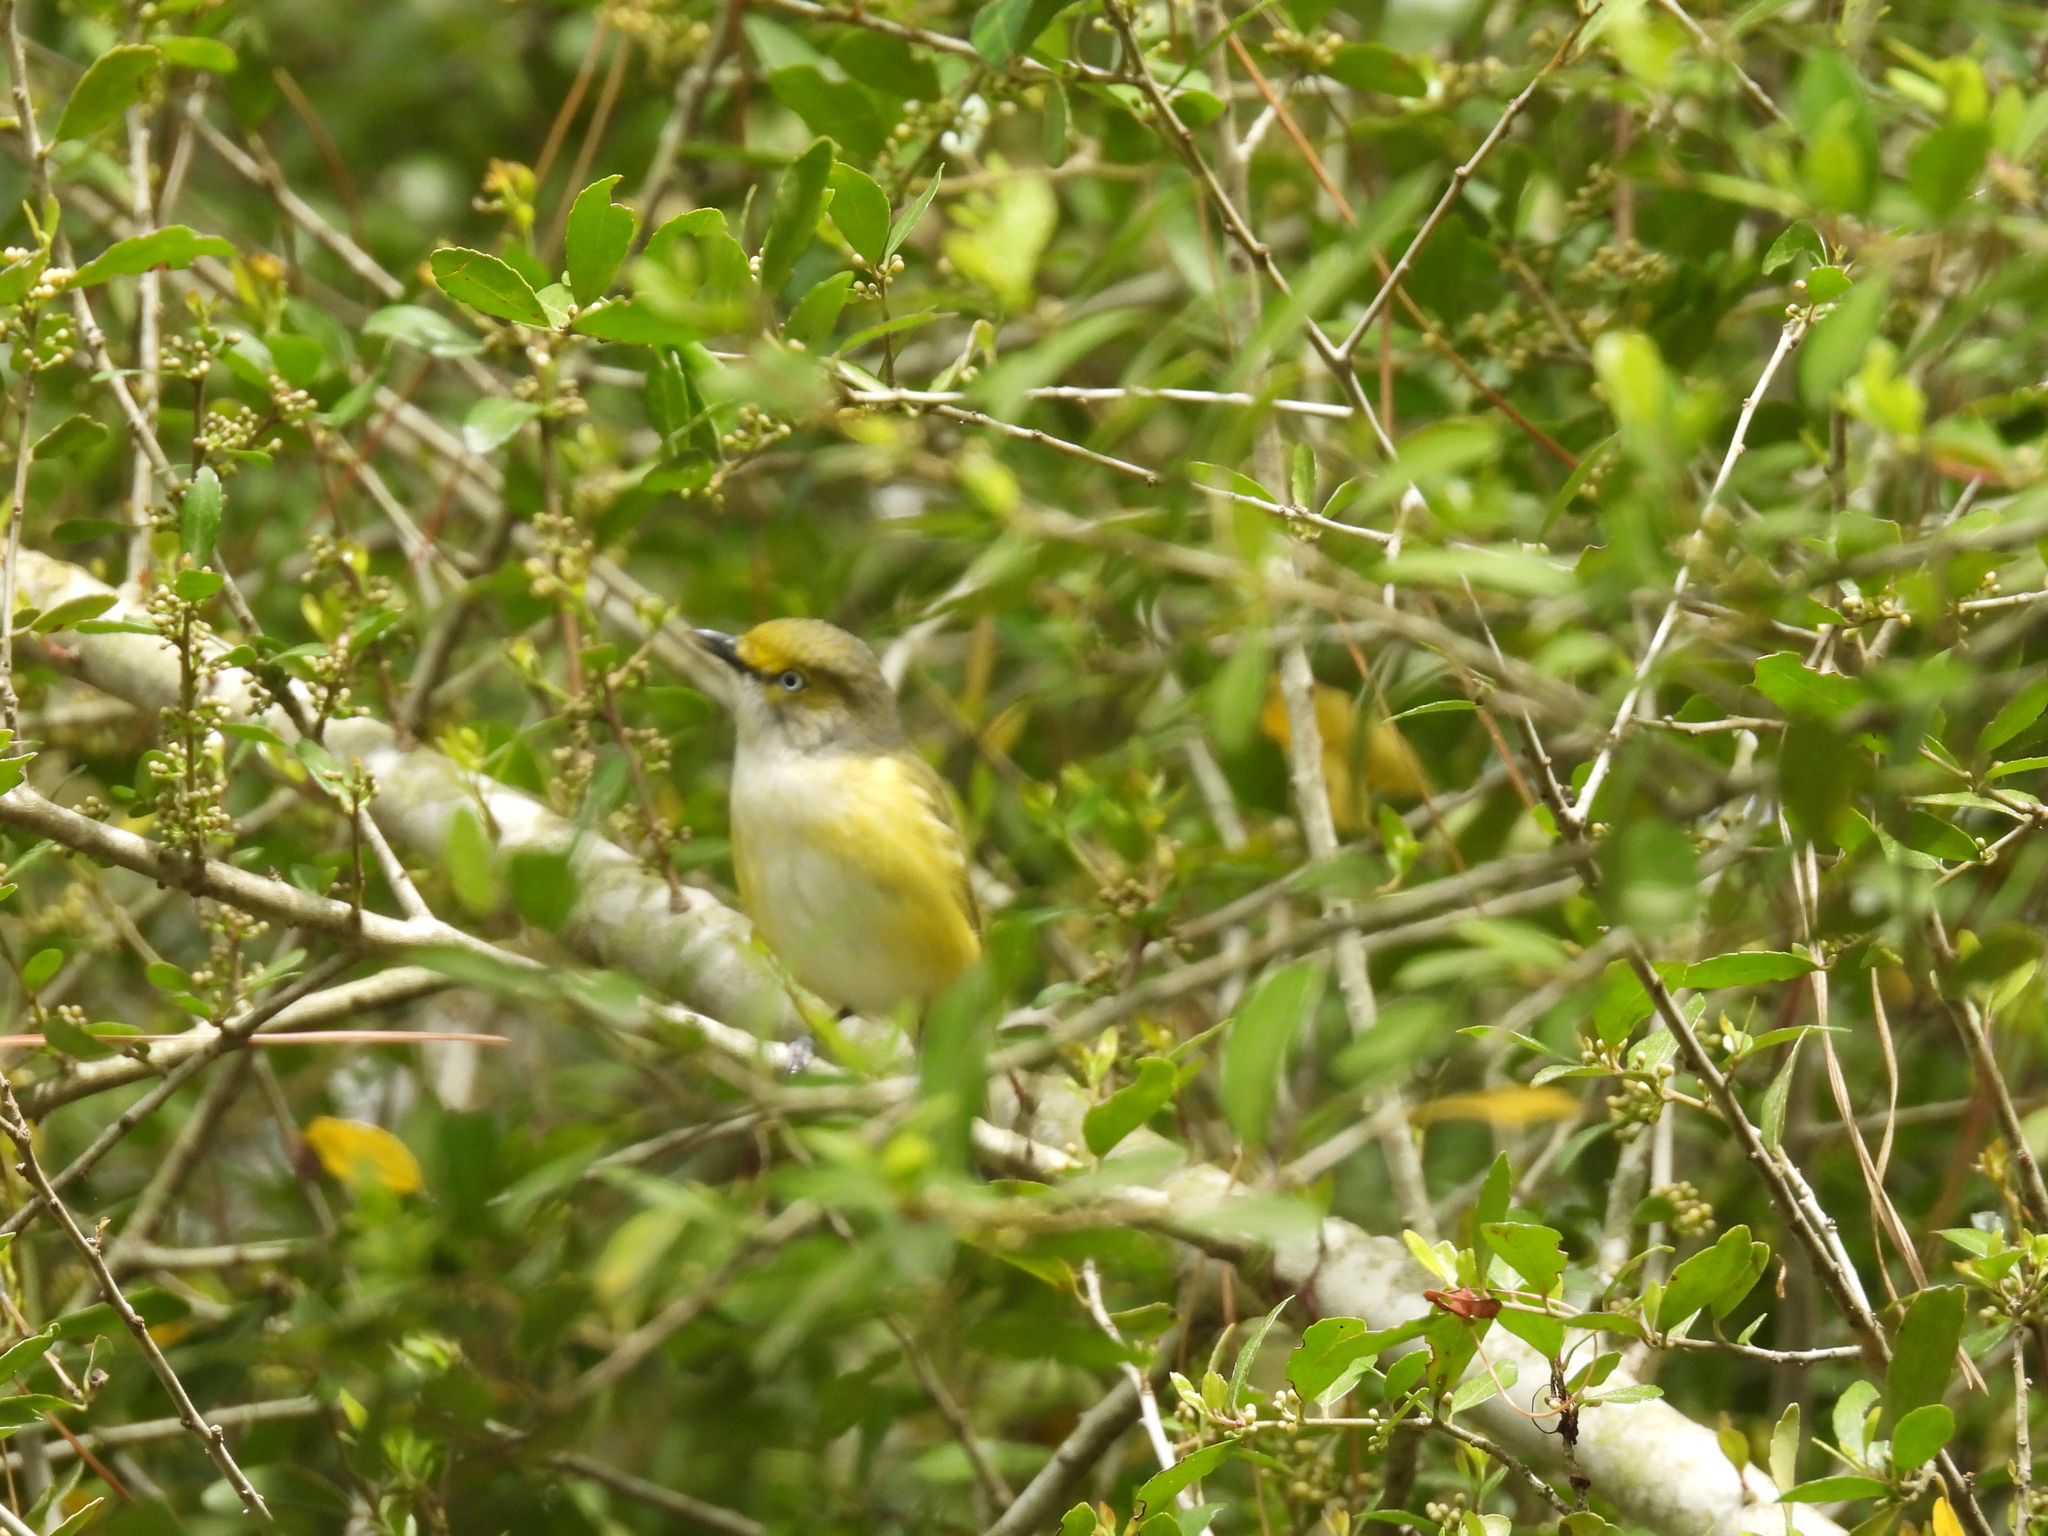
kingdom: Animalia
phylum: Chordata
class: Aves
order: Passeriformes
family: Vireonidae
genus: Vireo
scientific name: Vireo griseus
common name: White-eyed vireo
